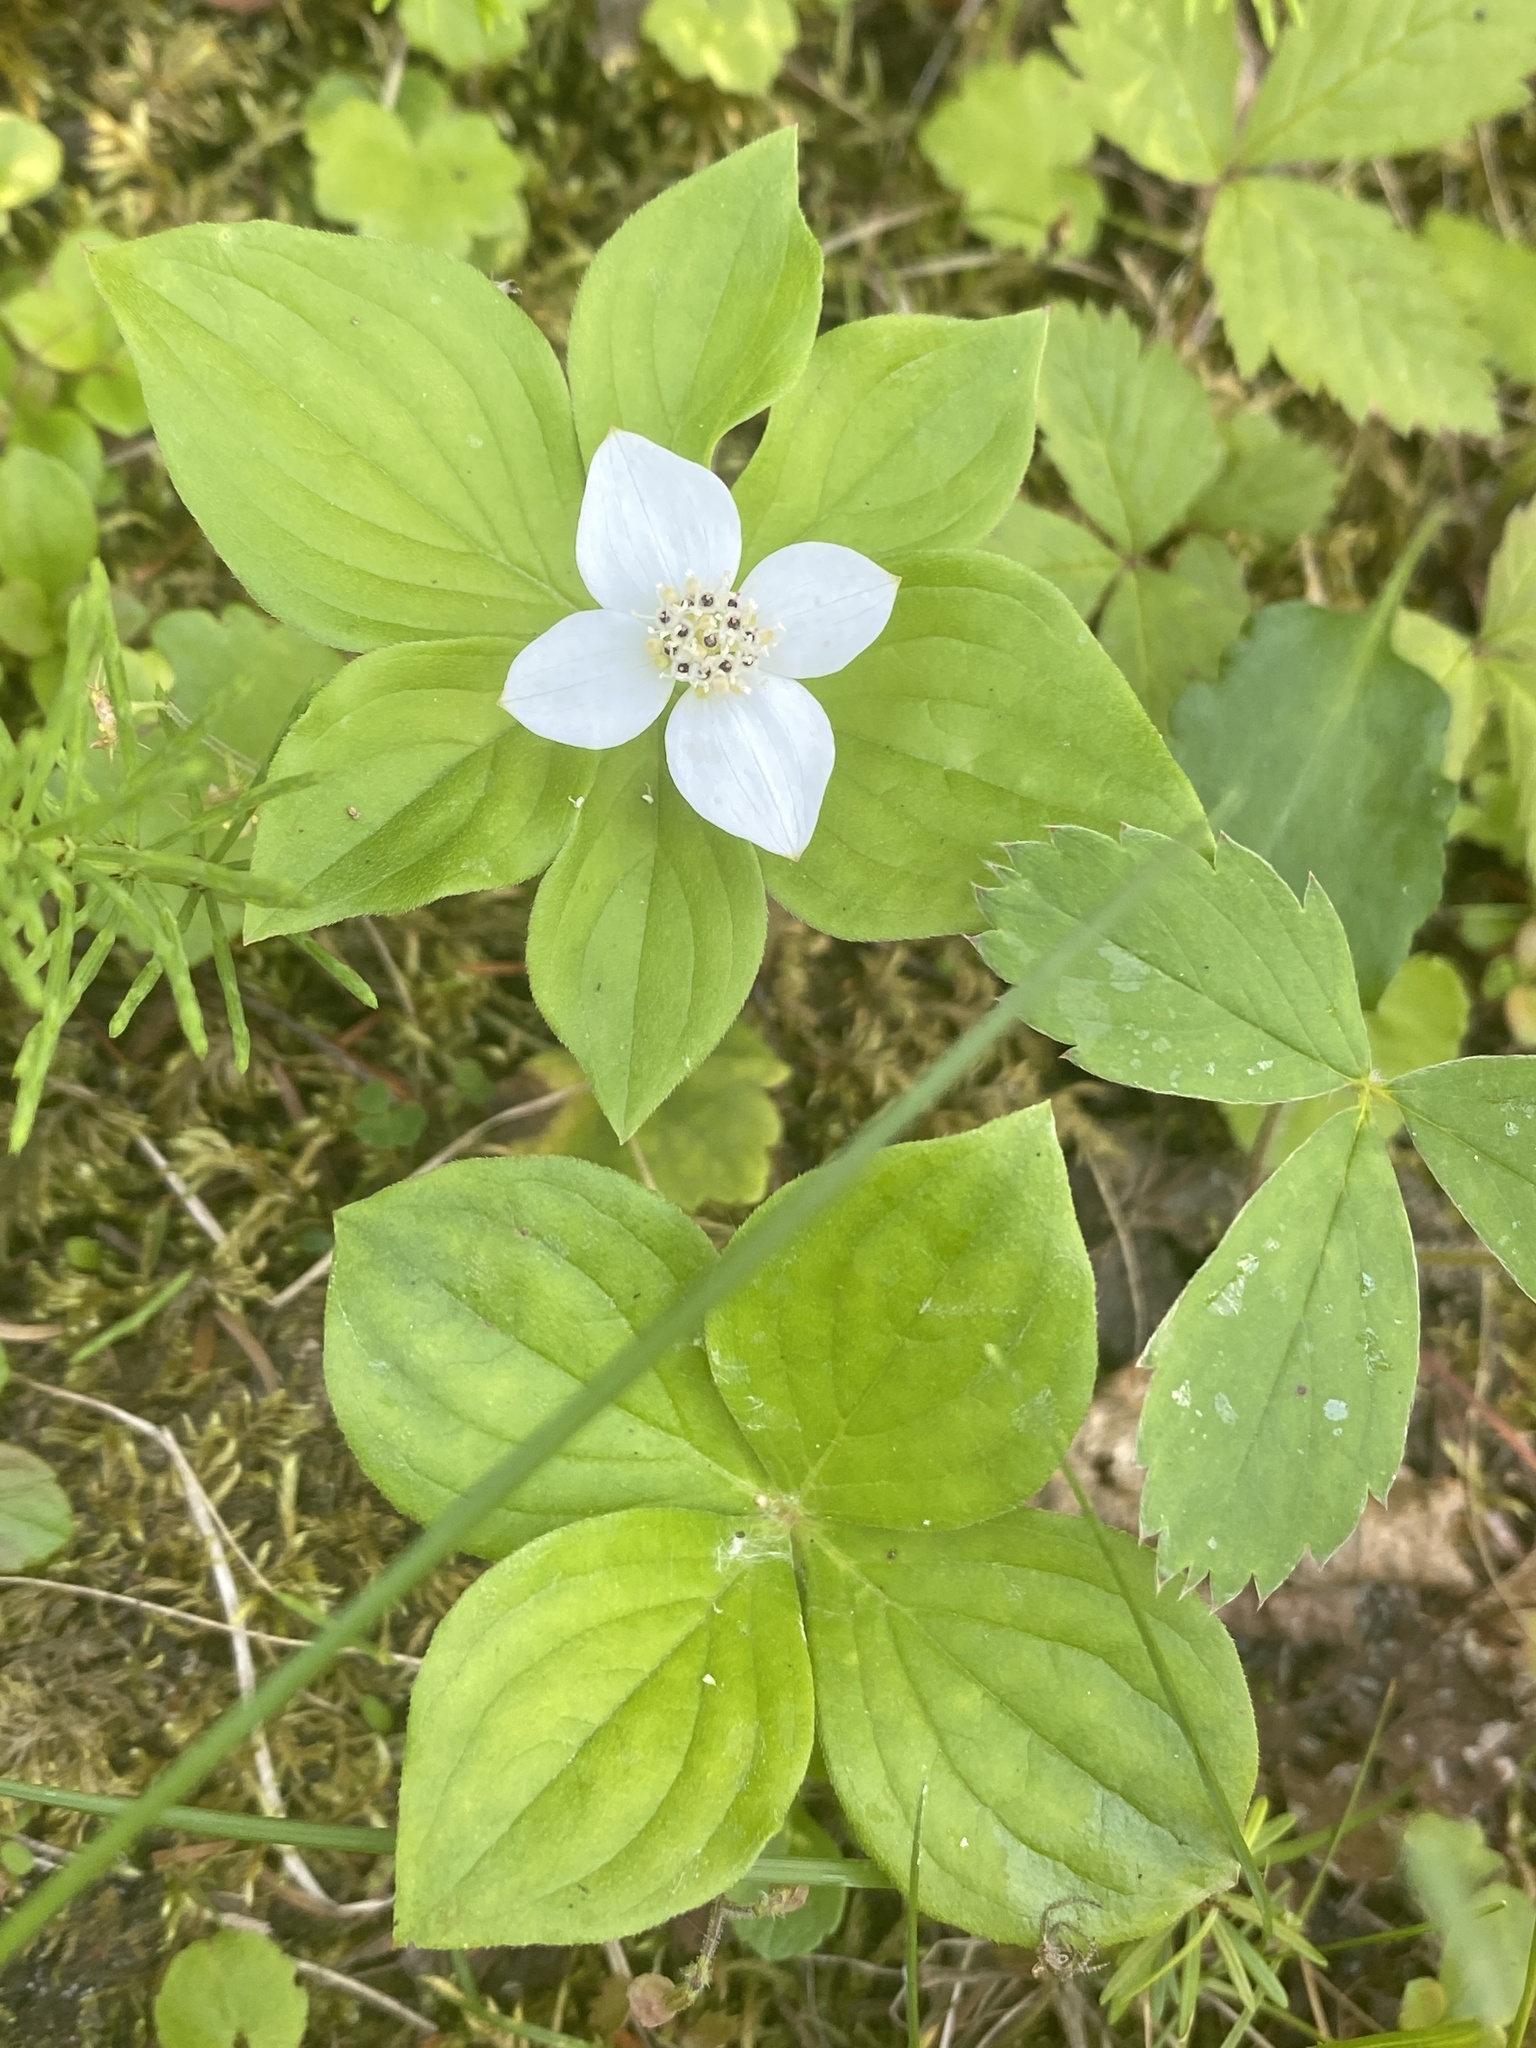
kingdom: Plantae
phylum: Tracheophyta
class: Magnoliopsida
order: Cornales
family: Cornaceae
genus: Cornus
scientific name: Cornus canadensis
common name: Creeping dogwood
